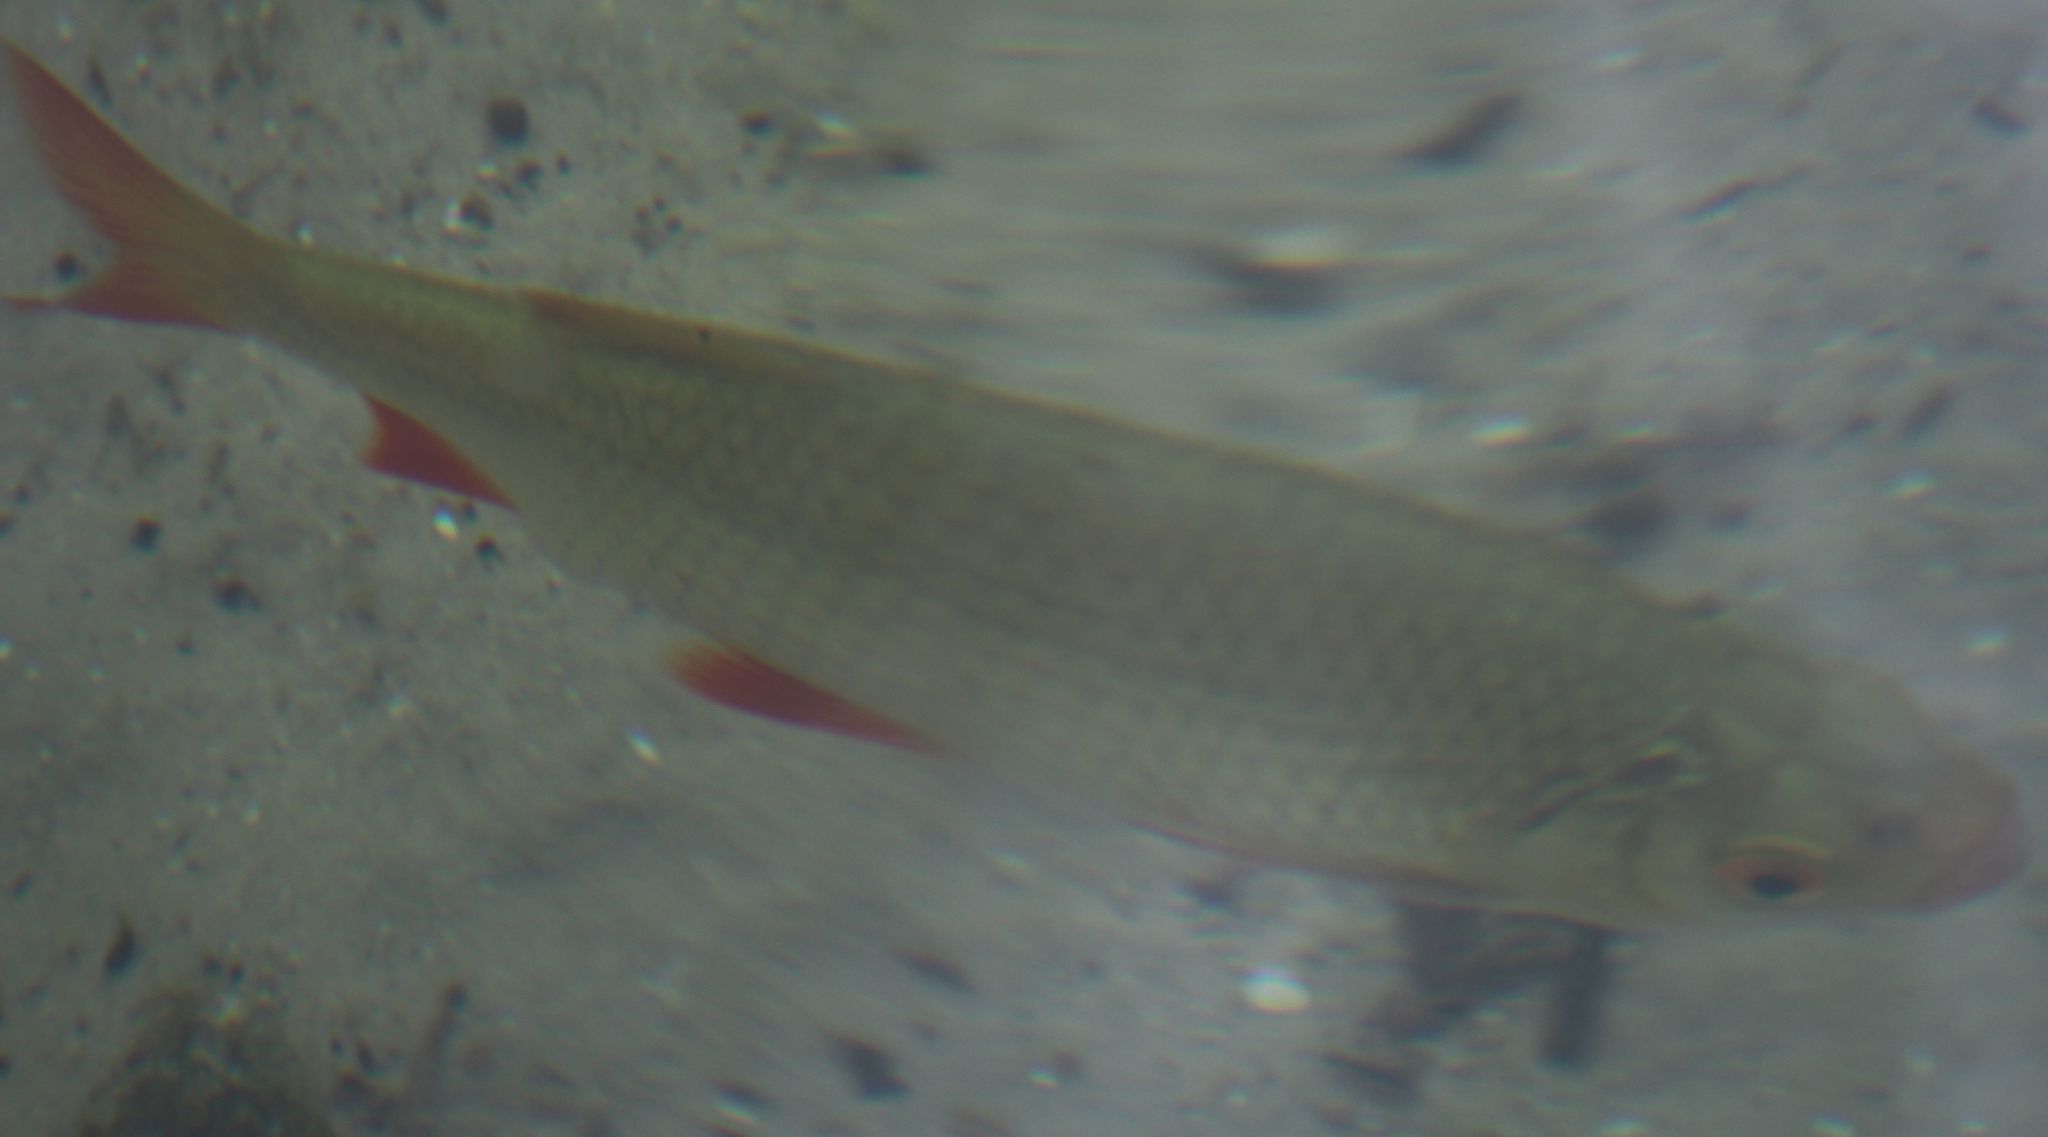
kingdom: Animalia
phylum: Chordata
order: Cypriniformes
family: Cyprinidae
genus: Scardinius
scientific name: Scardinius erythrophthalmus
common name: Rudd
